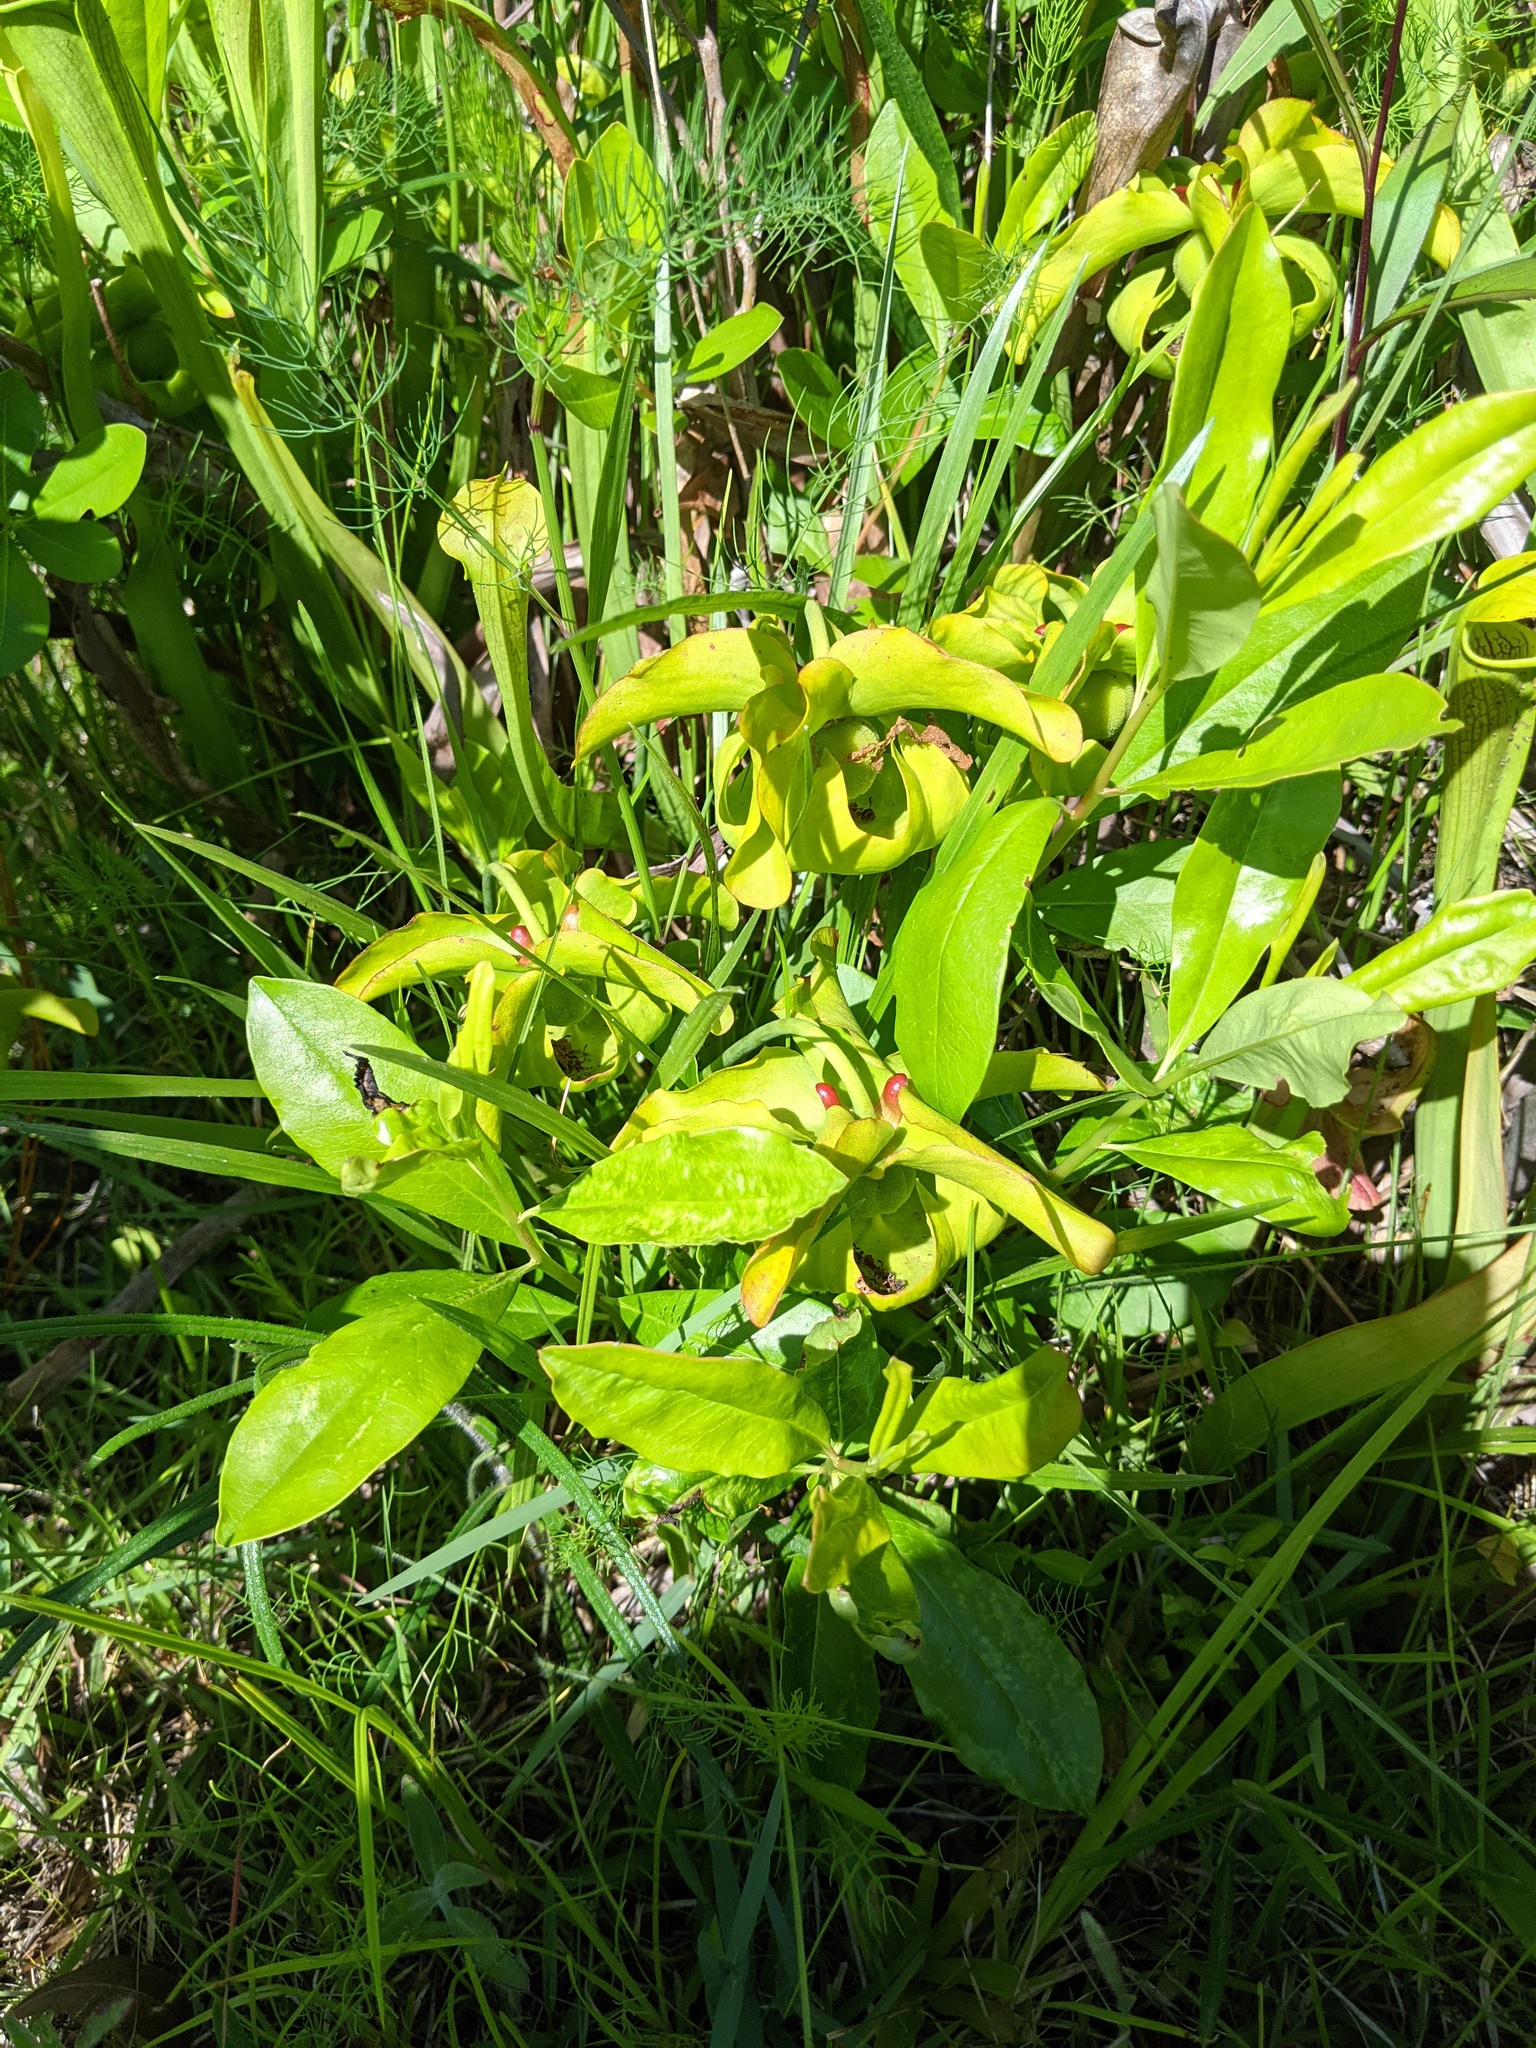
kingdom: Plantae
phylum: Tracheophyta
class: Magnoliopsida
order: Ericales
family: Sarraceniaceae
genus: Sarracenia
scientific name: Sarracenia alata
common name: Yellow trumpets
